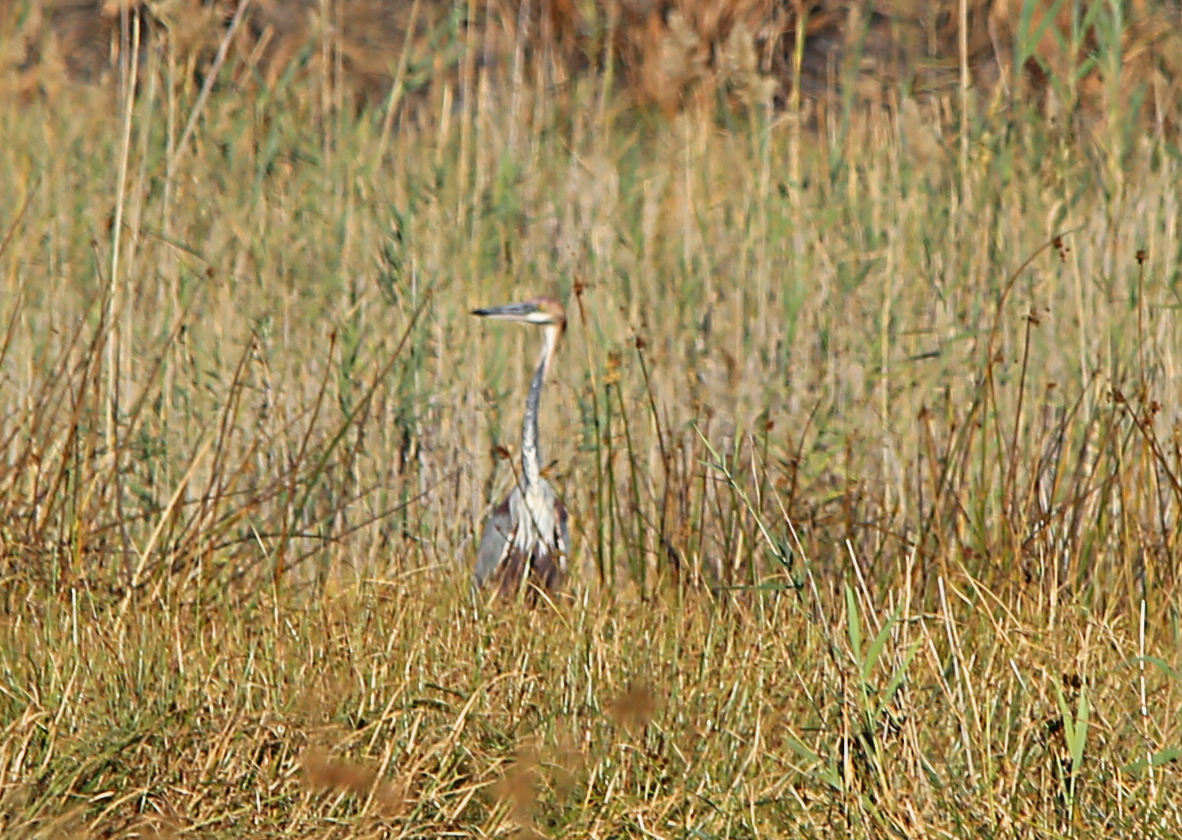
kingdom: Animalia
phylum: Chordata
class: Aves
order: Pelecaniformes
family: Ardeidae
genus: Ardea
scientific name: Ardea goliath
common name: Goliath heron
